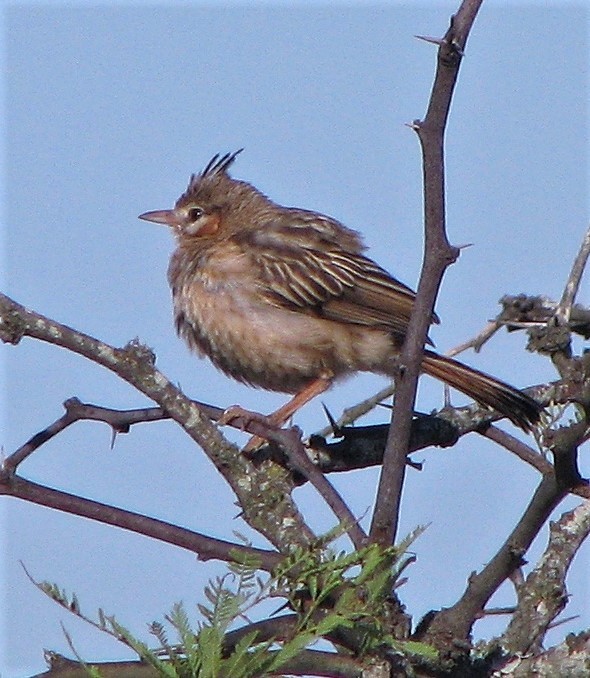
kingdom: Animalia
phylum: Chordata
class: Aves
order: Passeriformes
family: Furnariidae
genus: Coryphistera
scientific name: Coryphistera alaudina
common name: Lark-like brushrunner
